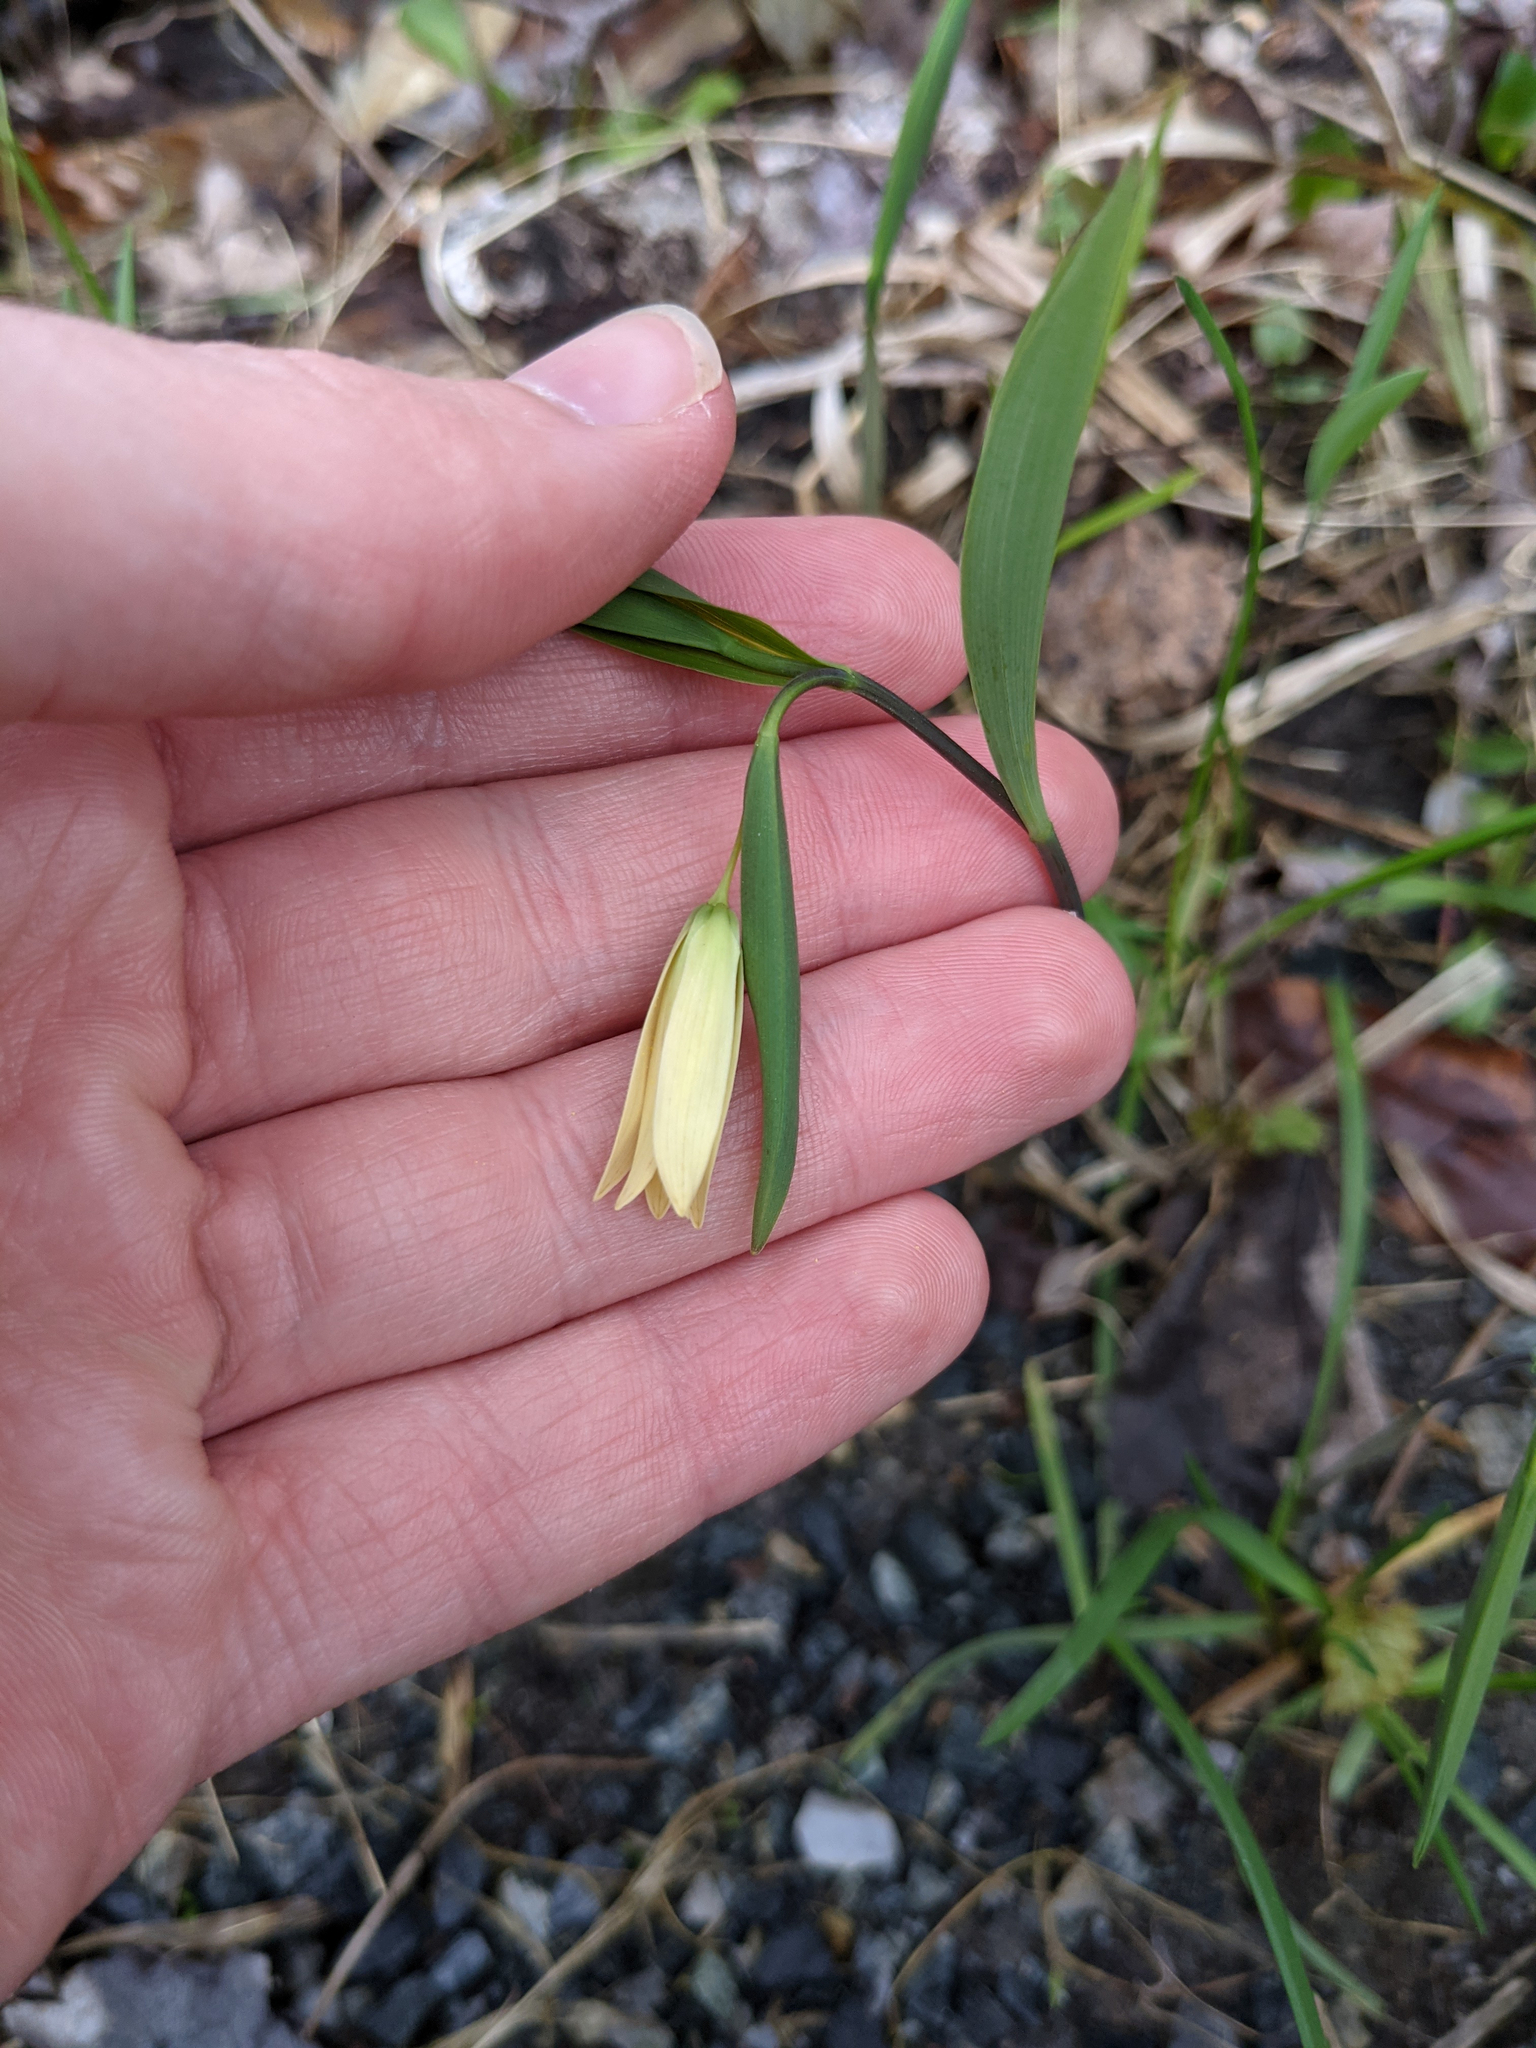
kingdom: Plantae
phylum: Tracheophyta
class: Liliopsida
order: Liliales
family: Colchicaceae
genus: Uvularia
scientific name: Uvularia sessilifolia
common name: Straw-lily
